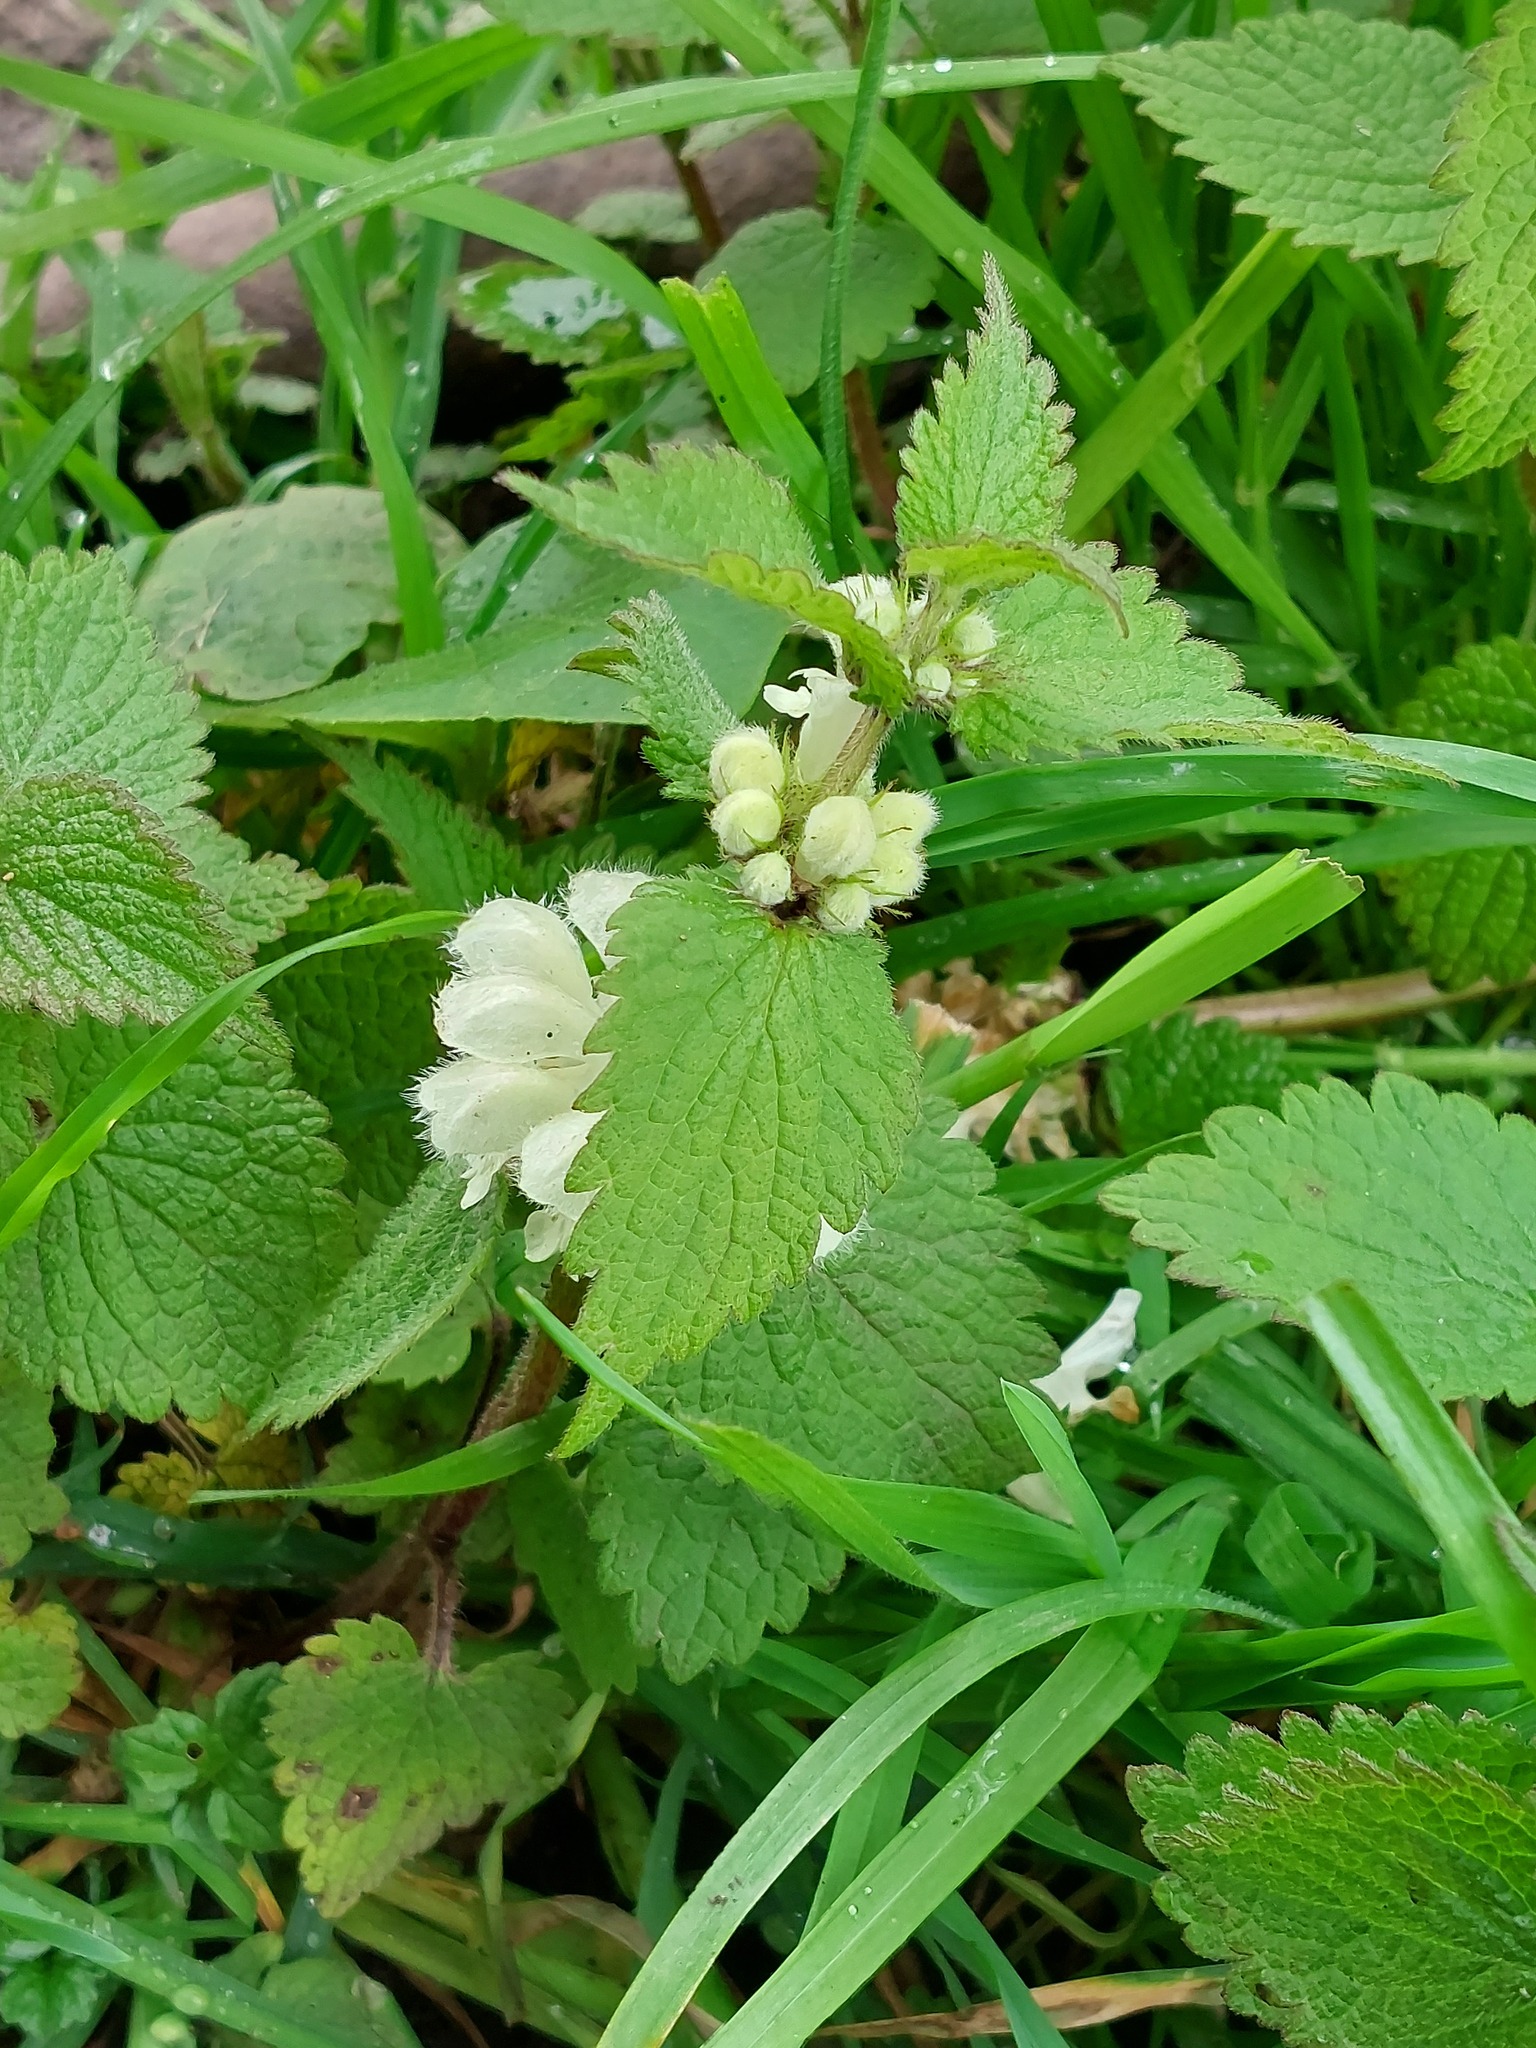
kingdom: Plantae
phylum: Tracheophyta
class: Magnoliopsida
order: Lamiales
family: Lamiaceae
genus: Lamium
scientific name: Lamium album
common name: White dead-nettle
